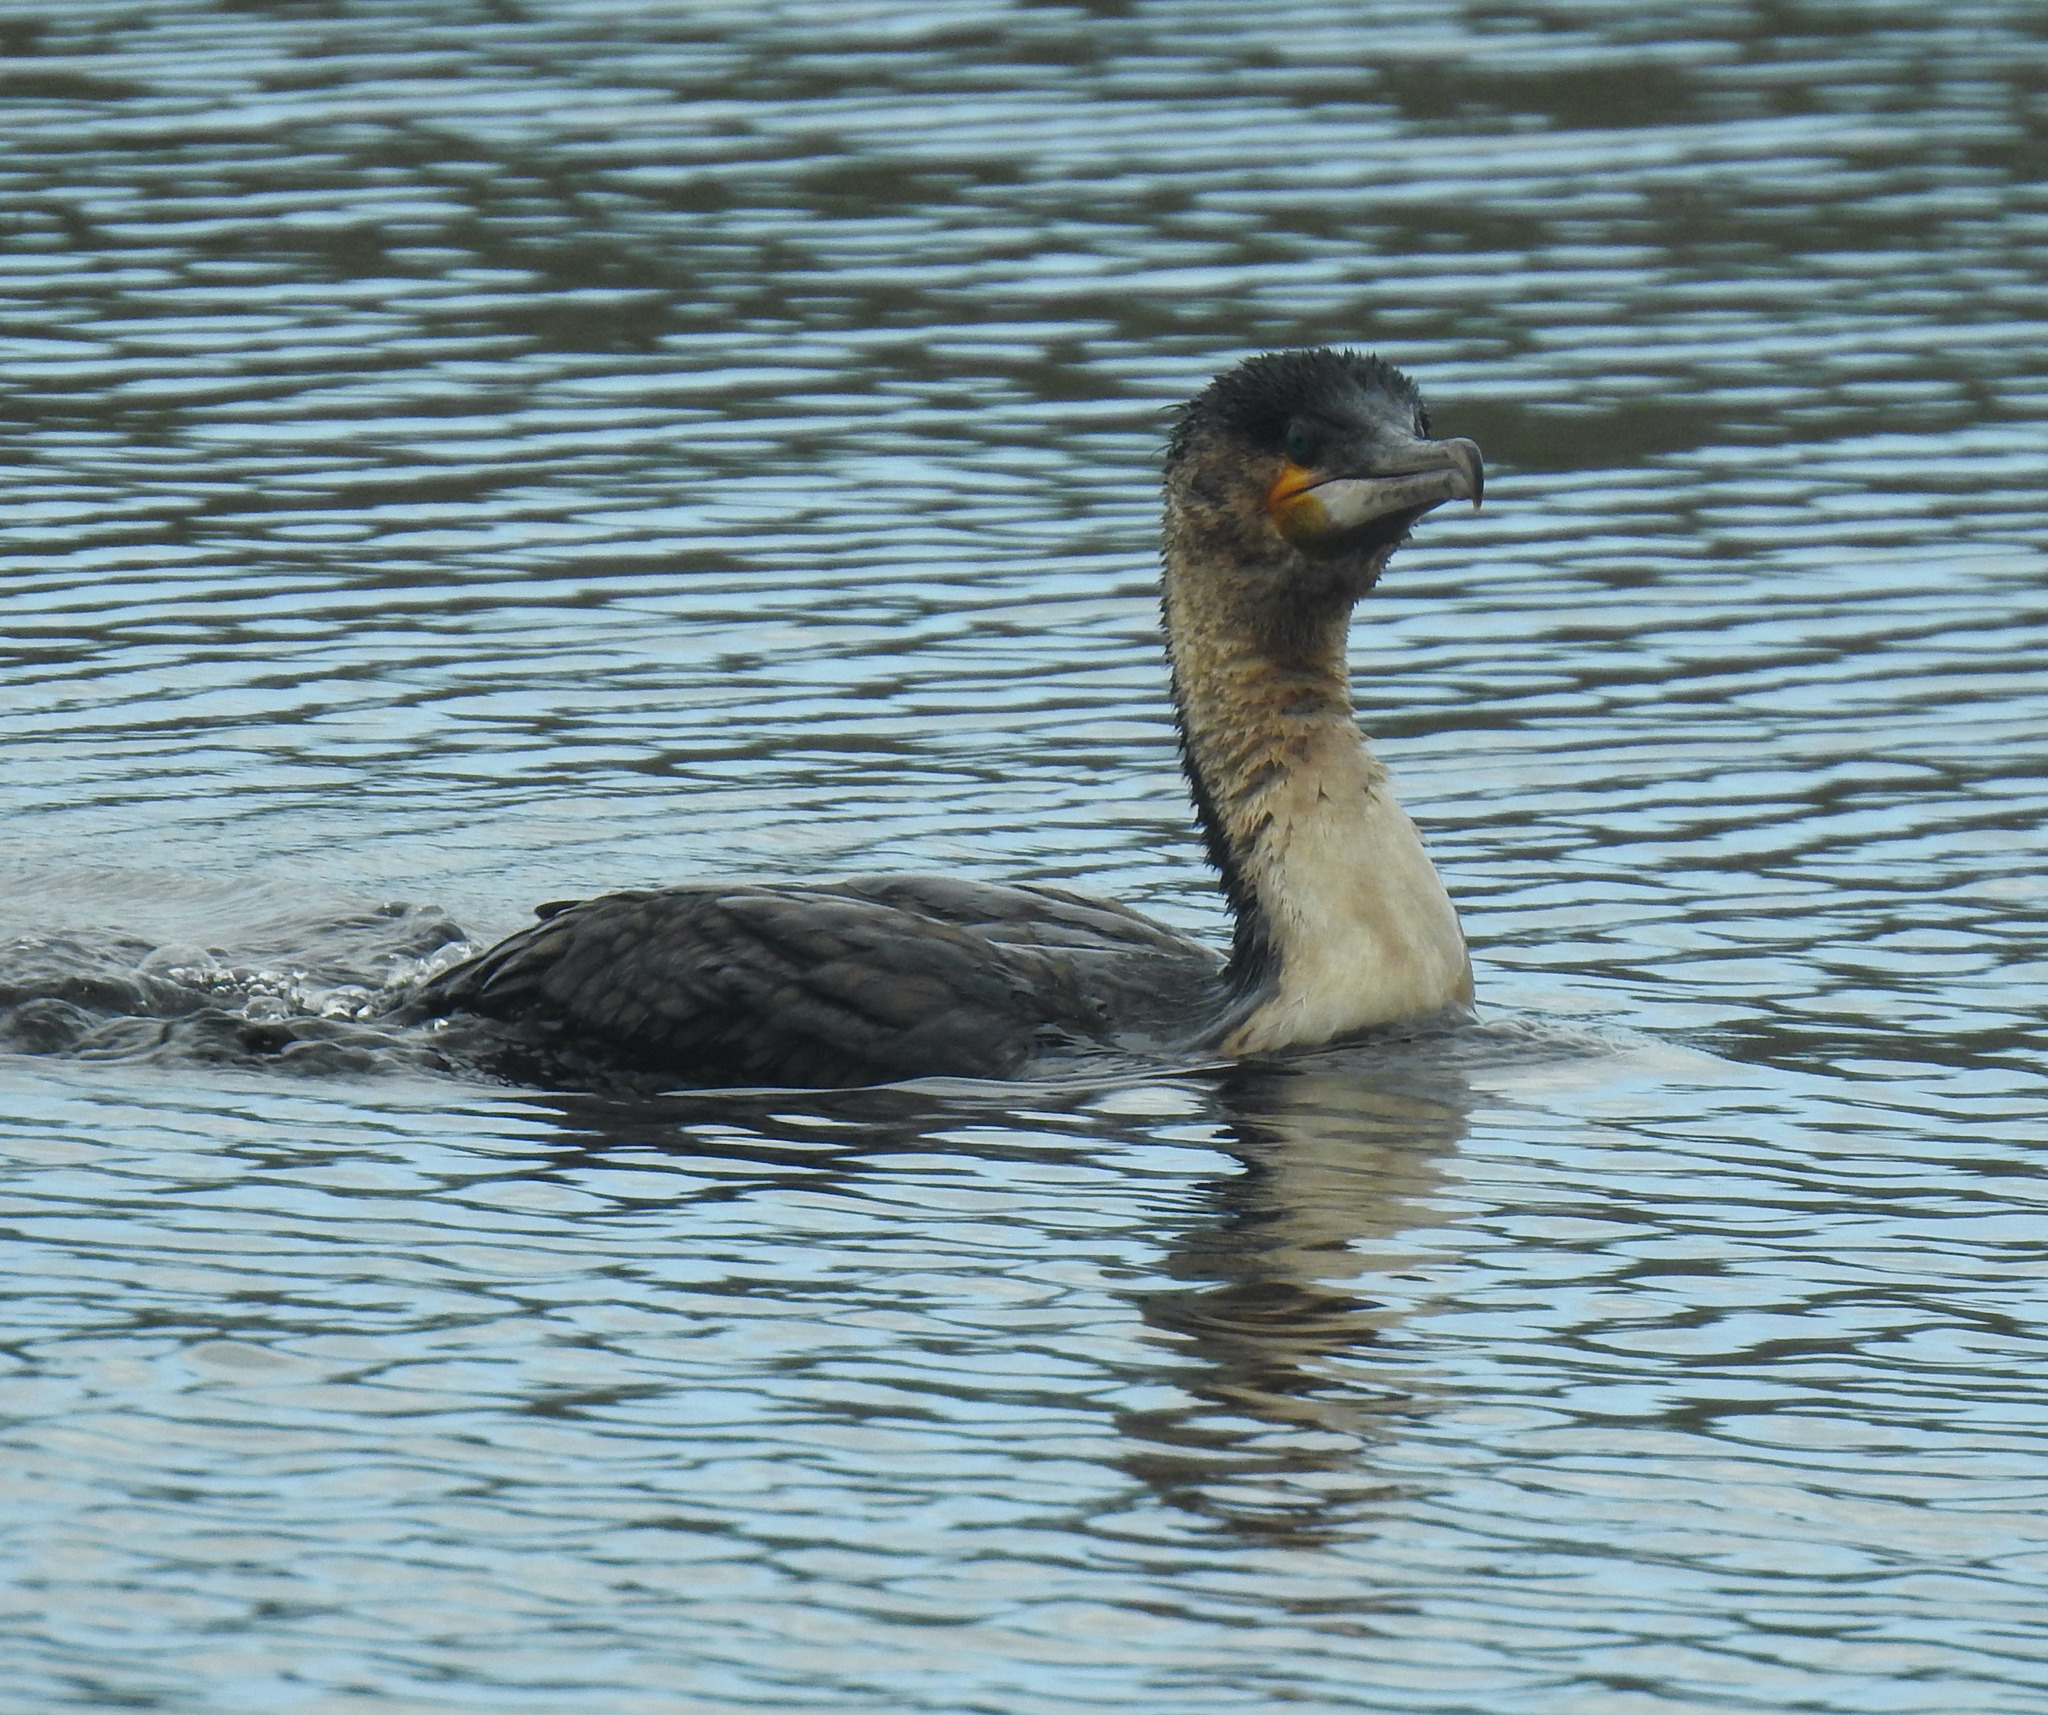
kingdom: Animalia
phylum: Chordata
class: Aves
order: Suliformes
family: Phalacrocoracidae
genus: Phalacrocorax
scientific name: Phalacrocorax carbo
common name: Great cormorant
